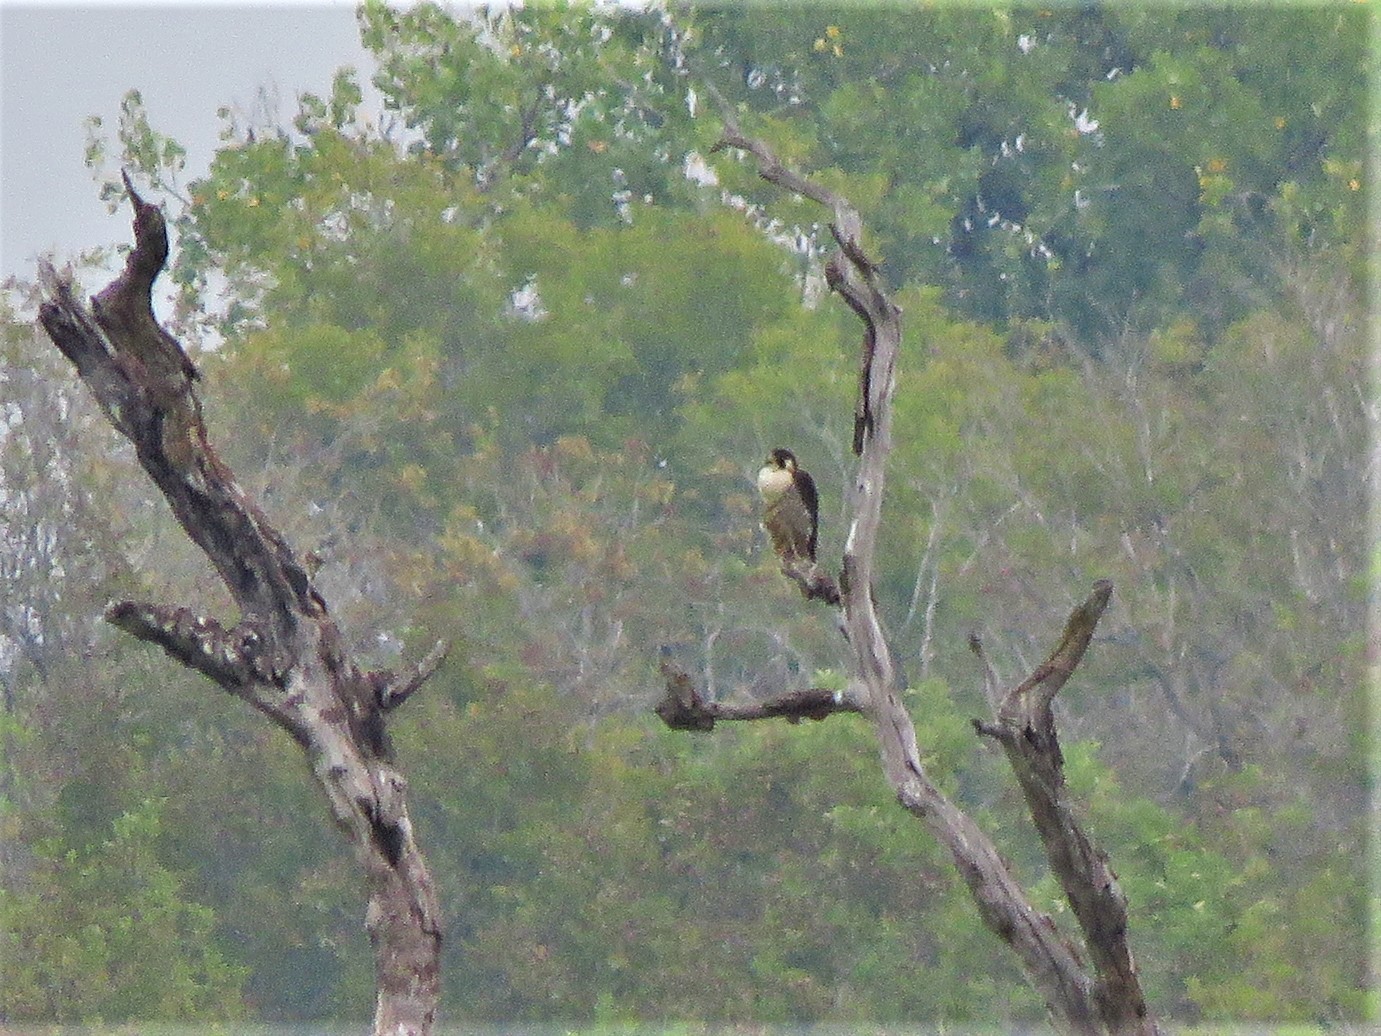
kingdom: Animalia
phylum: Chordata
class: Aves
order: Falconiformes
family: Falconidae
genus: Falco
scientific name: Falco peregrinus
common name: Peregrine falcon
